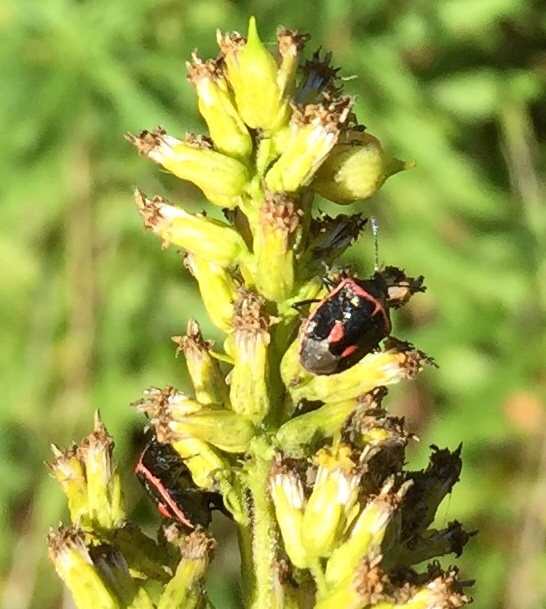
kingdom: Animalia
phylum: Arthropoda
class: Insecta
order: Hemiptera
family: Pentatomidae
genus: Cosmopepla
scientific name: Cosmopepla lintneriana
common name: Twice-stabbed stink bug
